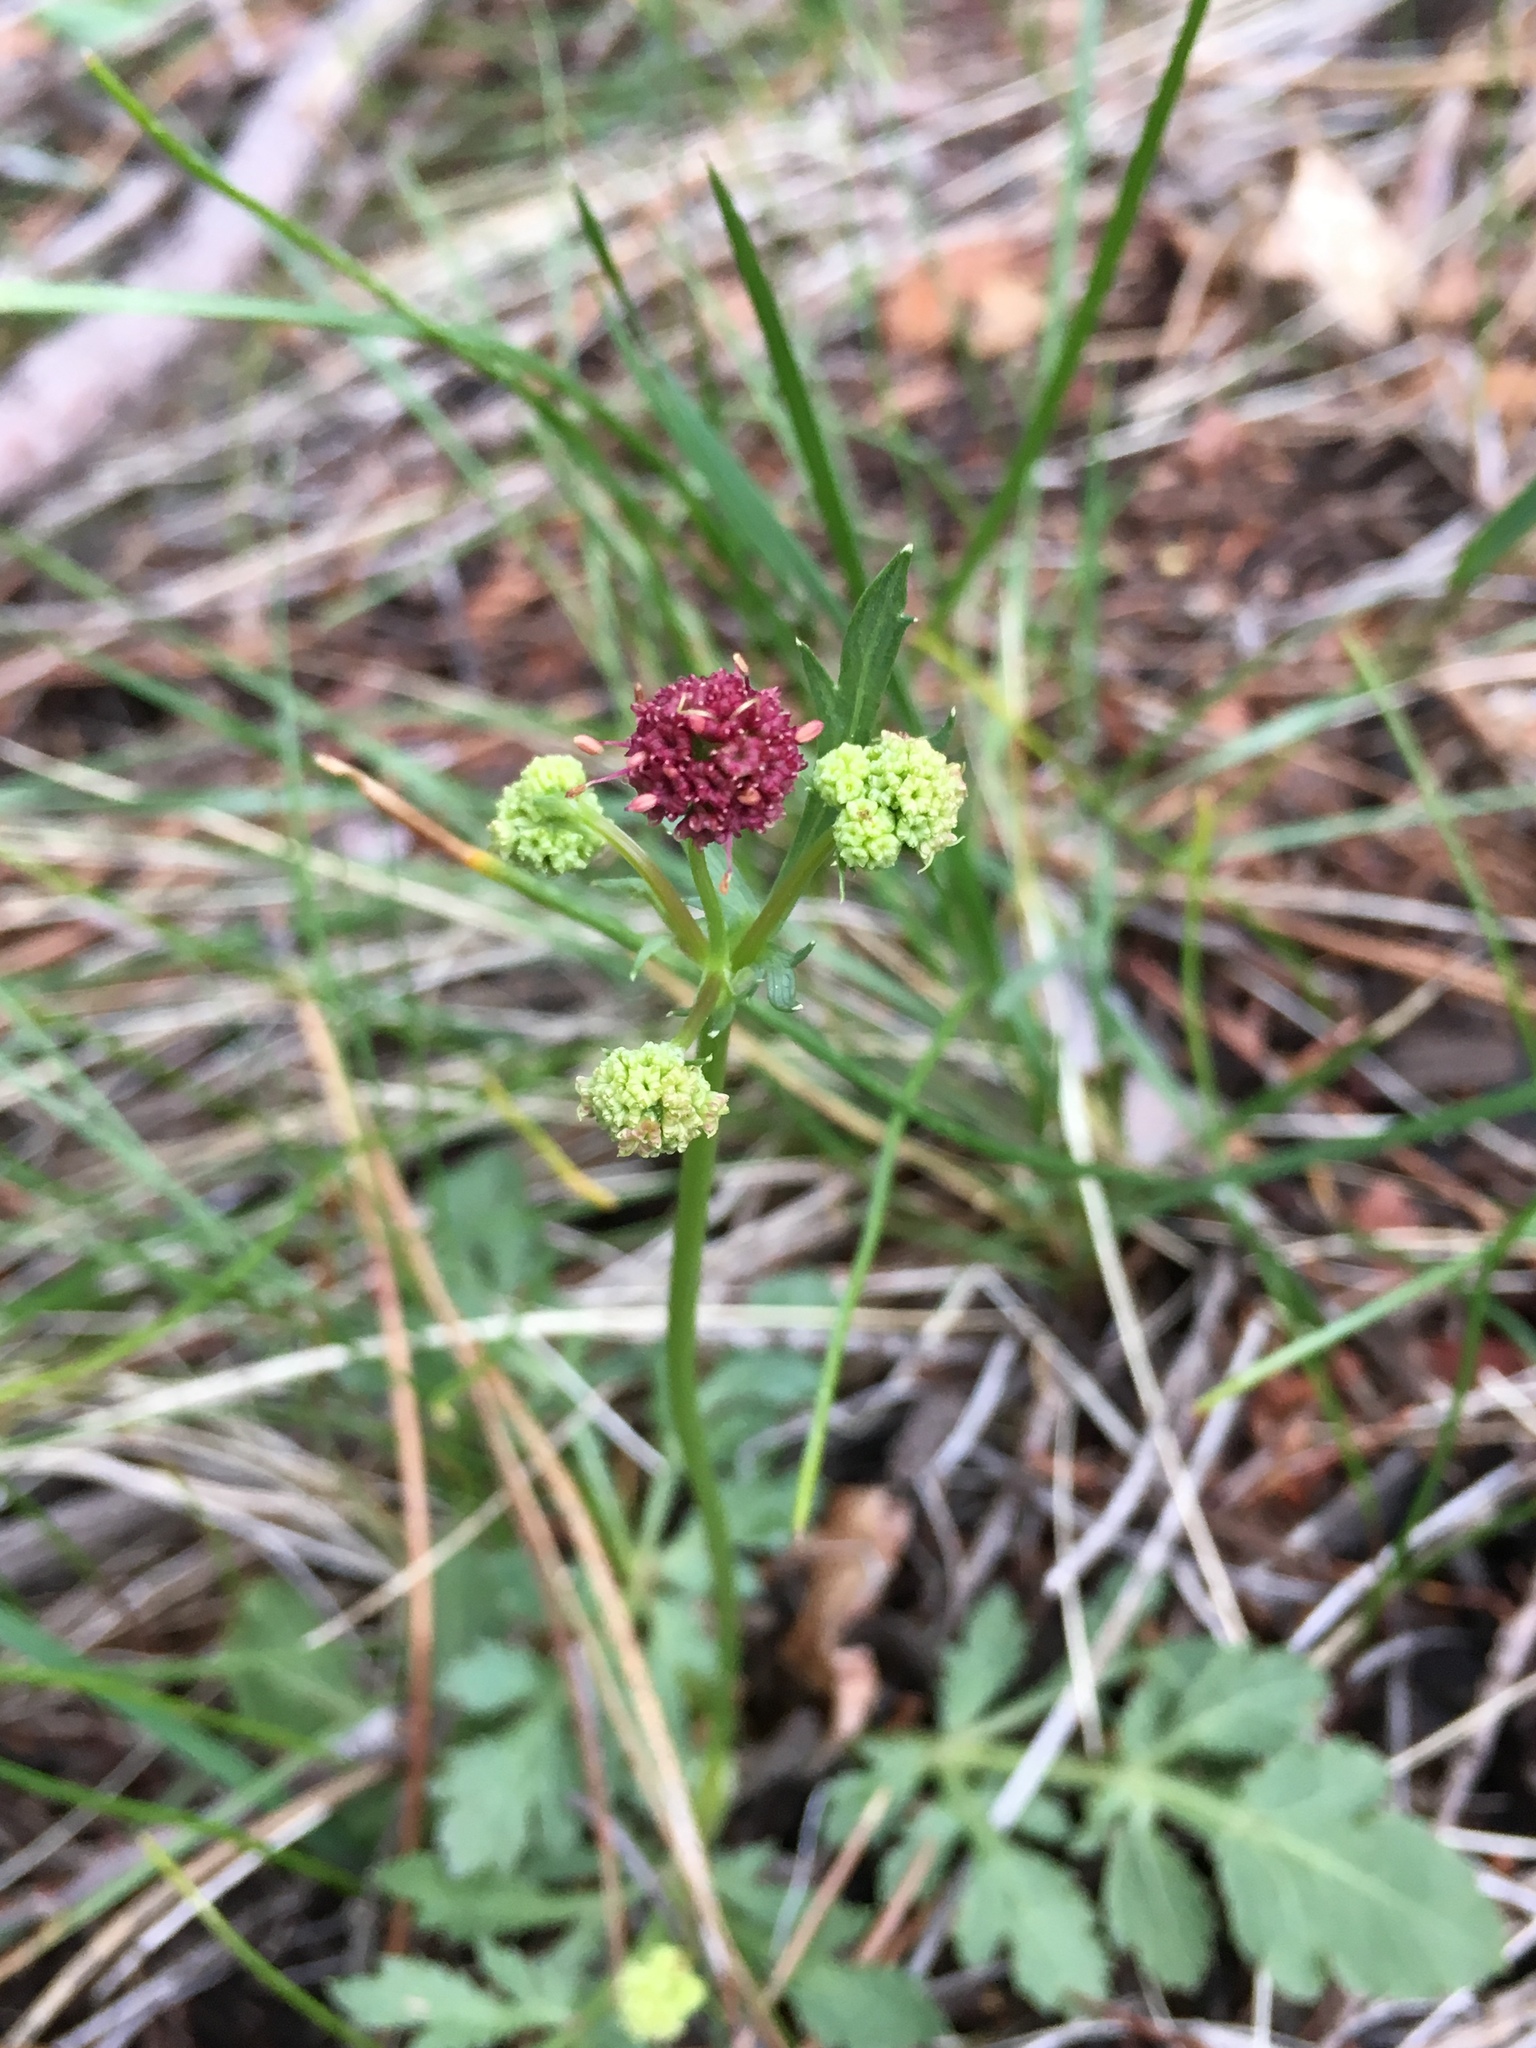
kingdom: Plantae
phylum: Tracheophyta
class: Magnoliopsida
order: Apiales
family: Apiaceae
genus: Sanicula
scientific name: Sanicula bipinnatifida
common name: Shoe-buttons
